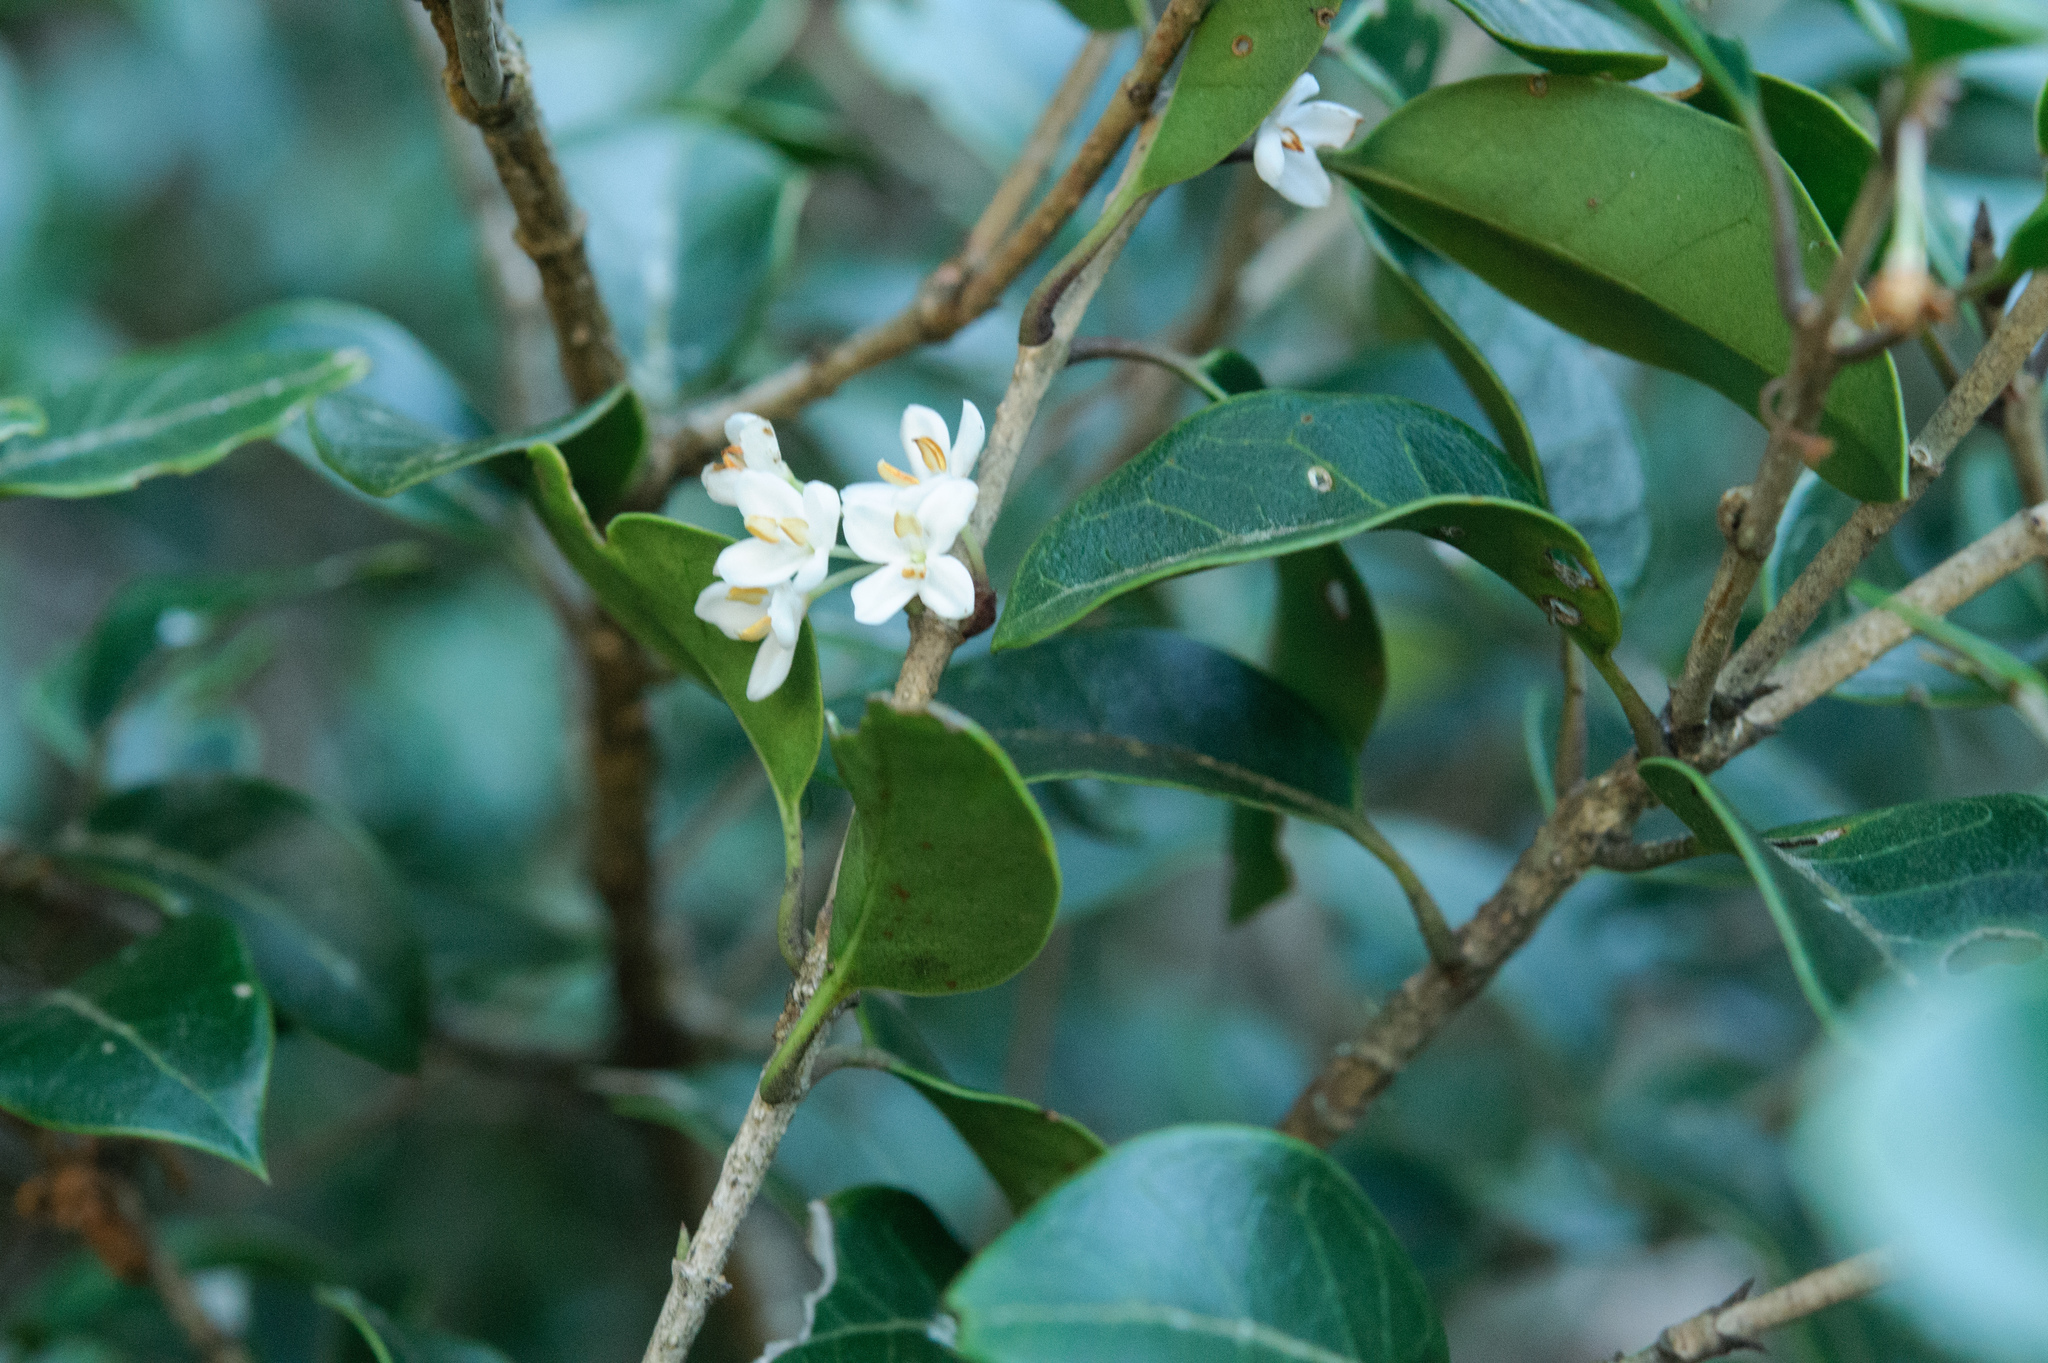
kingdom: Plantae
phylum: Tracheophyta
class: Magnoliopsida
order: Lamiales
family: Oleaceae
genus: Osmanthus
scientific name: Osmanthus heterophyllus
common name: Holly osmanthus
